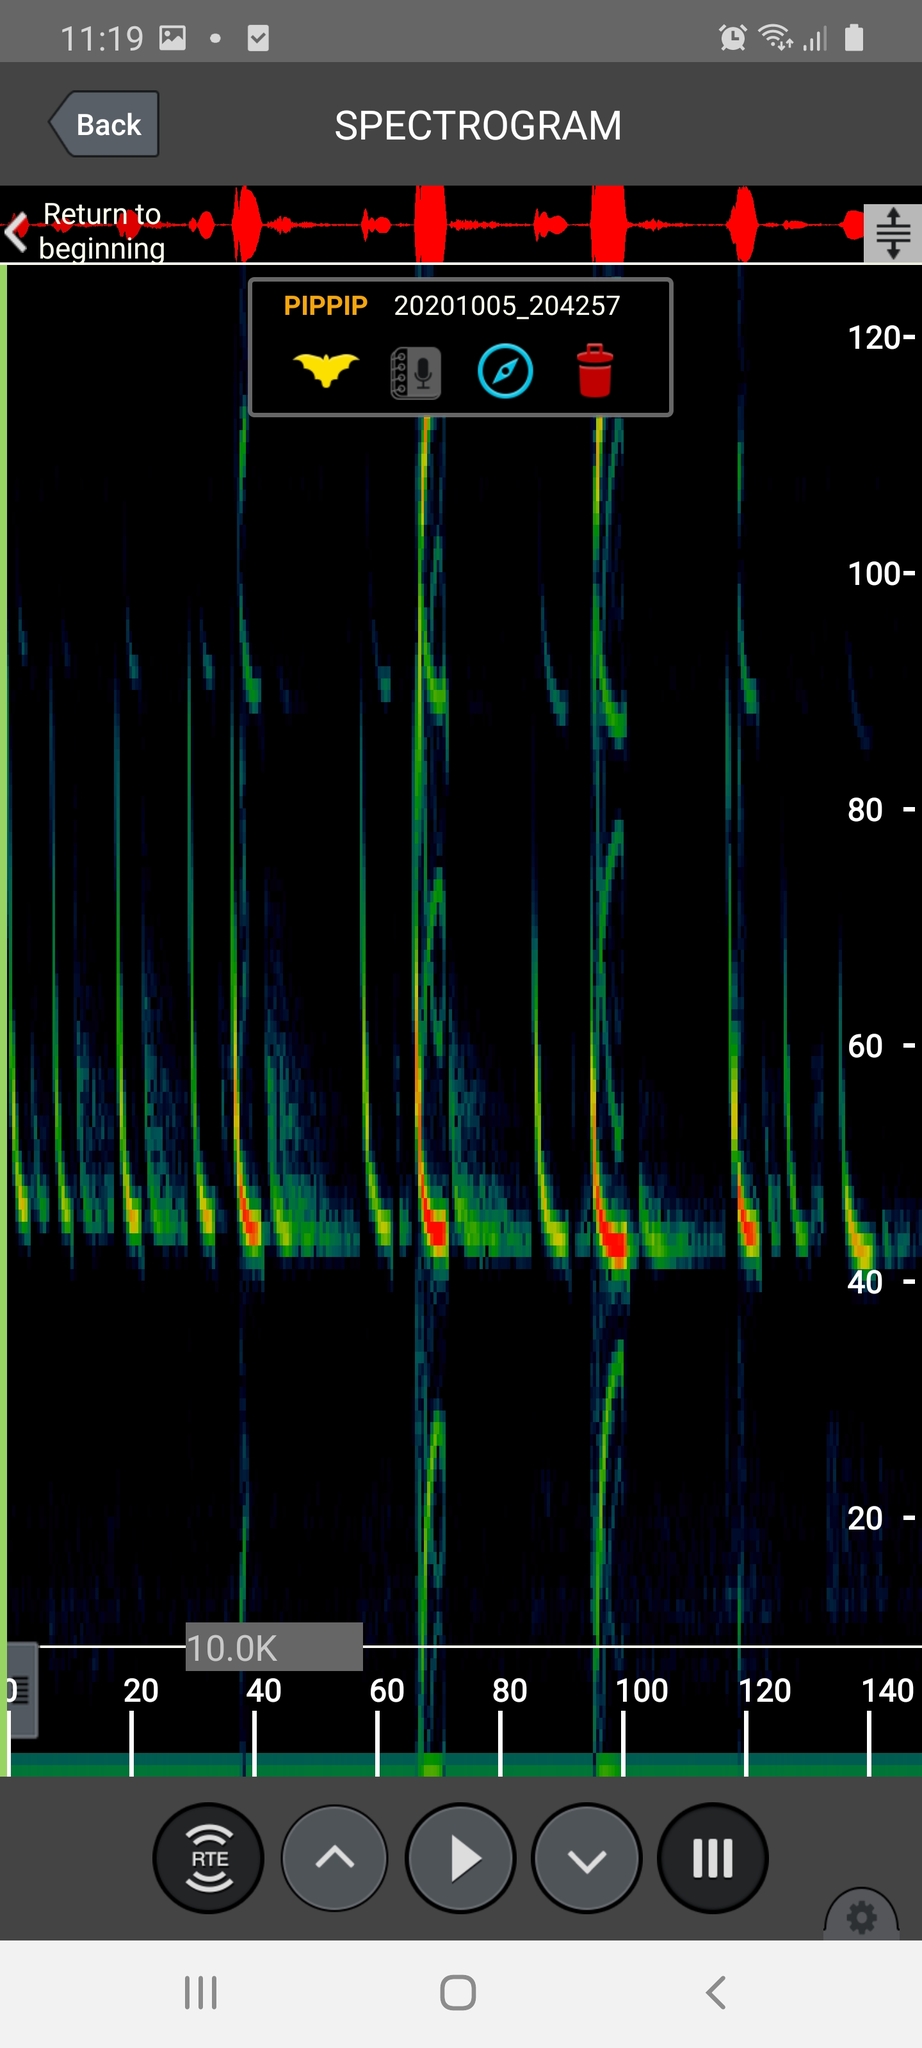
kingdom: Animalia
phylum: Chordata
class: Mammalia
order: Chiroptera
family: Vespertilionidae
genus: Pipistrellus
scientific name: Pipistrellus pipistrellus
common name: Common pipistrelle
